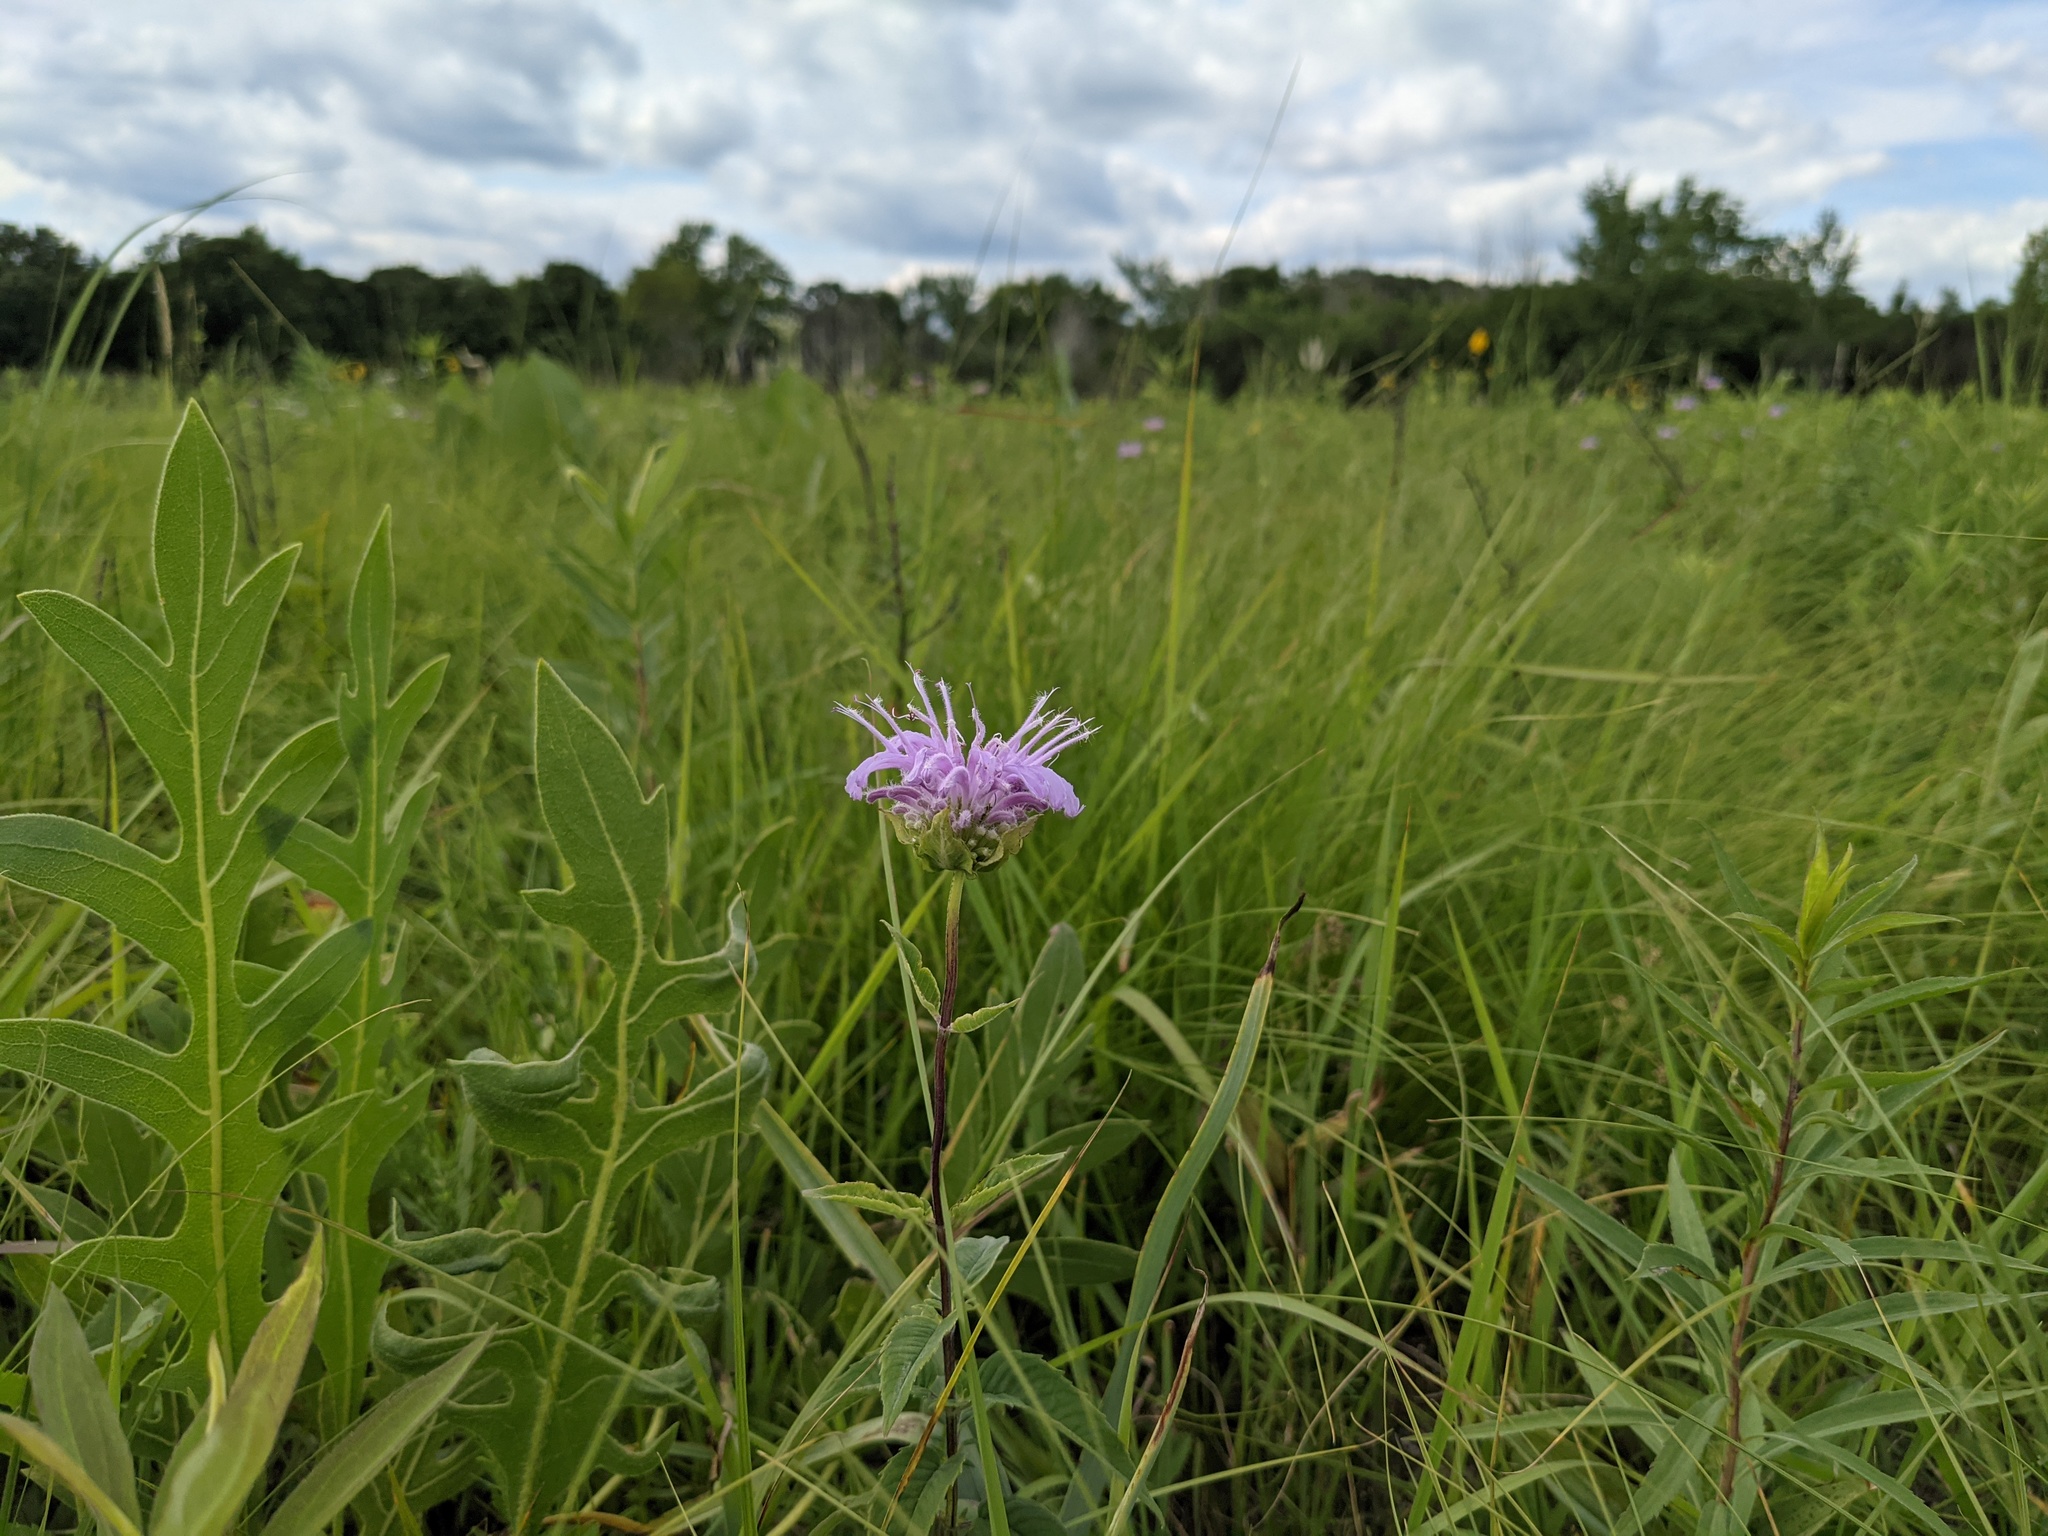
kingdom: Plantae
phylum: Tracheophyta
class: Magnoliopsida
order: Lamiales
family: Lamiaceae
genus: Monarda
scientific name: Monarda fistulosa
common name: Purple beebalm
